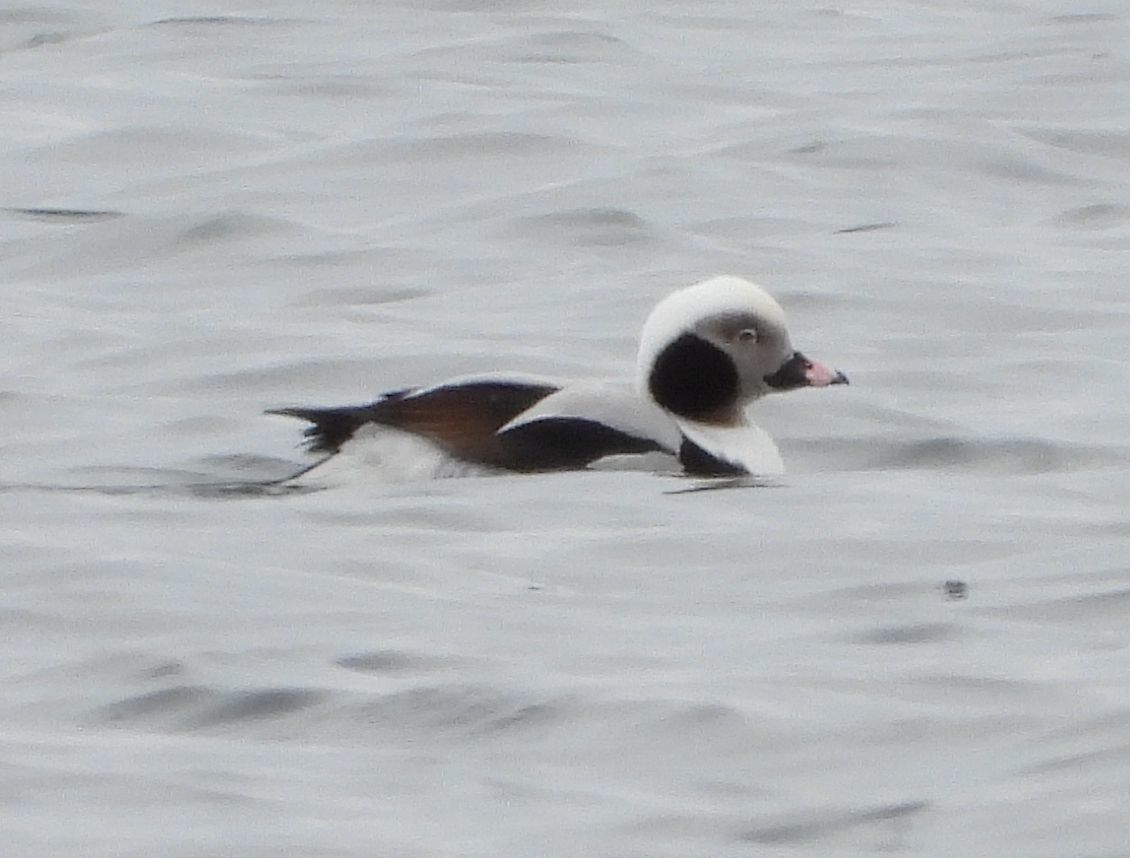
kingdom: Animalia
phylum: Chordata
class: Aves
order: Anseriformes
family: Anatidae
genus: Clangula
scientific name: Clangula hyemalis
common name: Long-tailed duck
